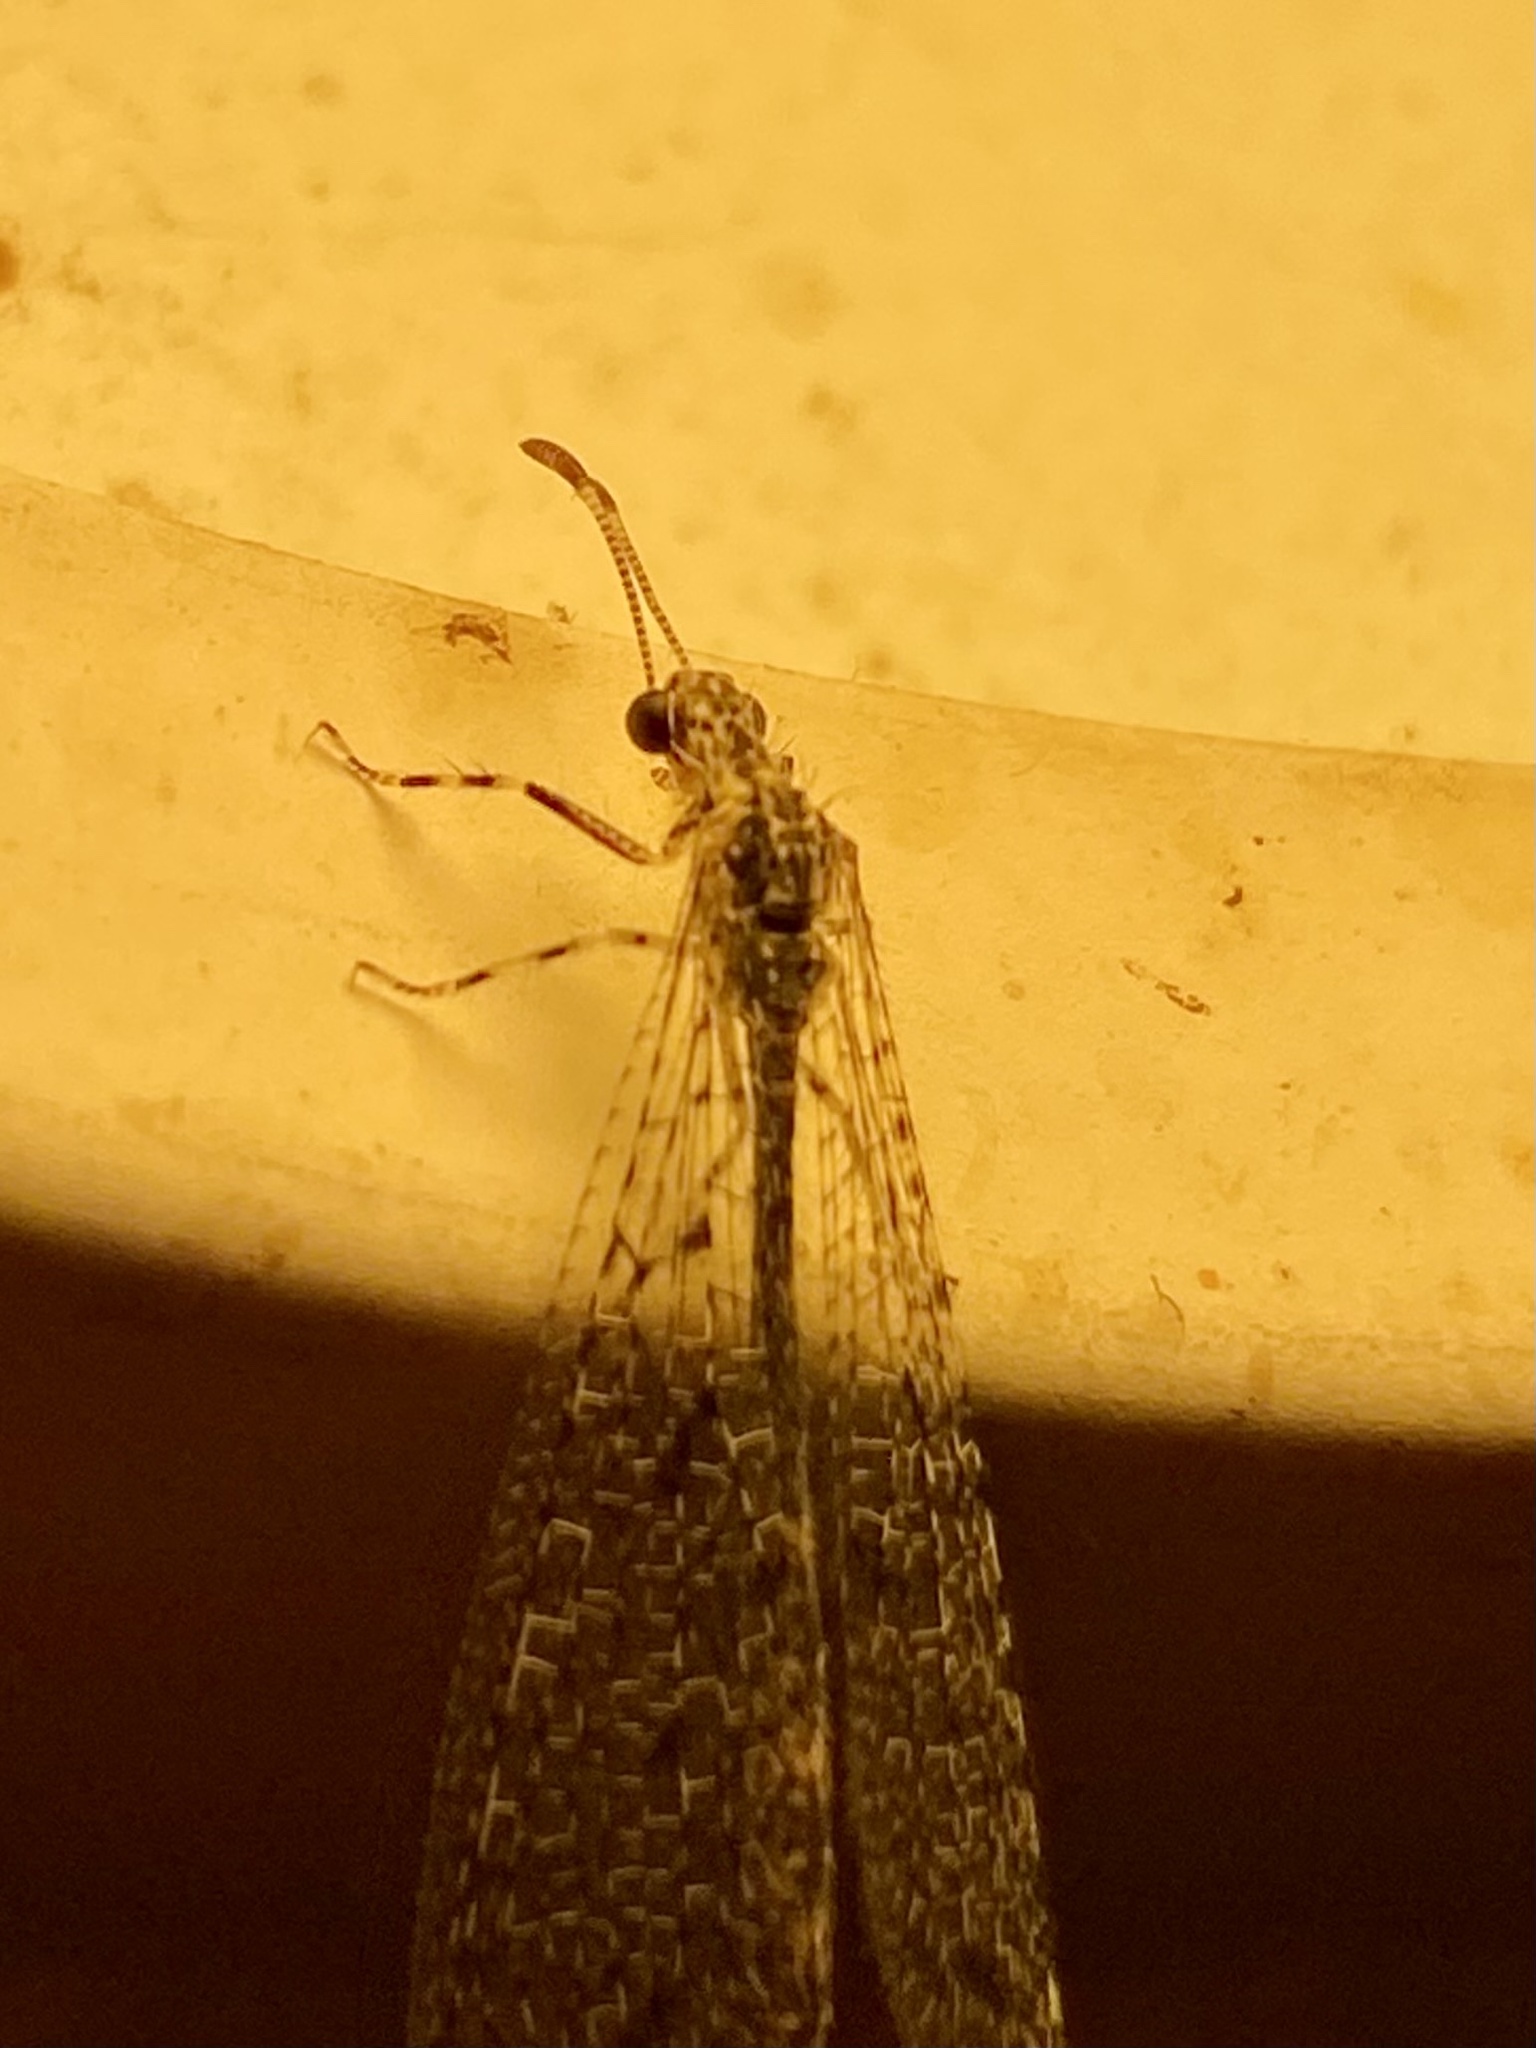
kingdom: Animalia
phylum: Arthropoda
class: Insecta
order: Neuroptera
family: Myrmeleontidae
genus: Chaetoleon
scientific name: Chaetoleon pusillus
